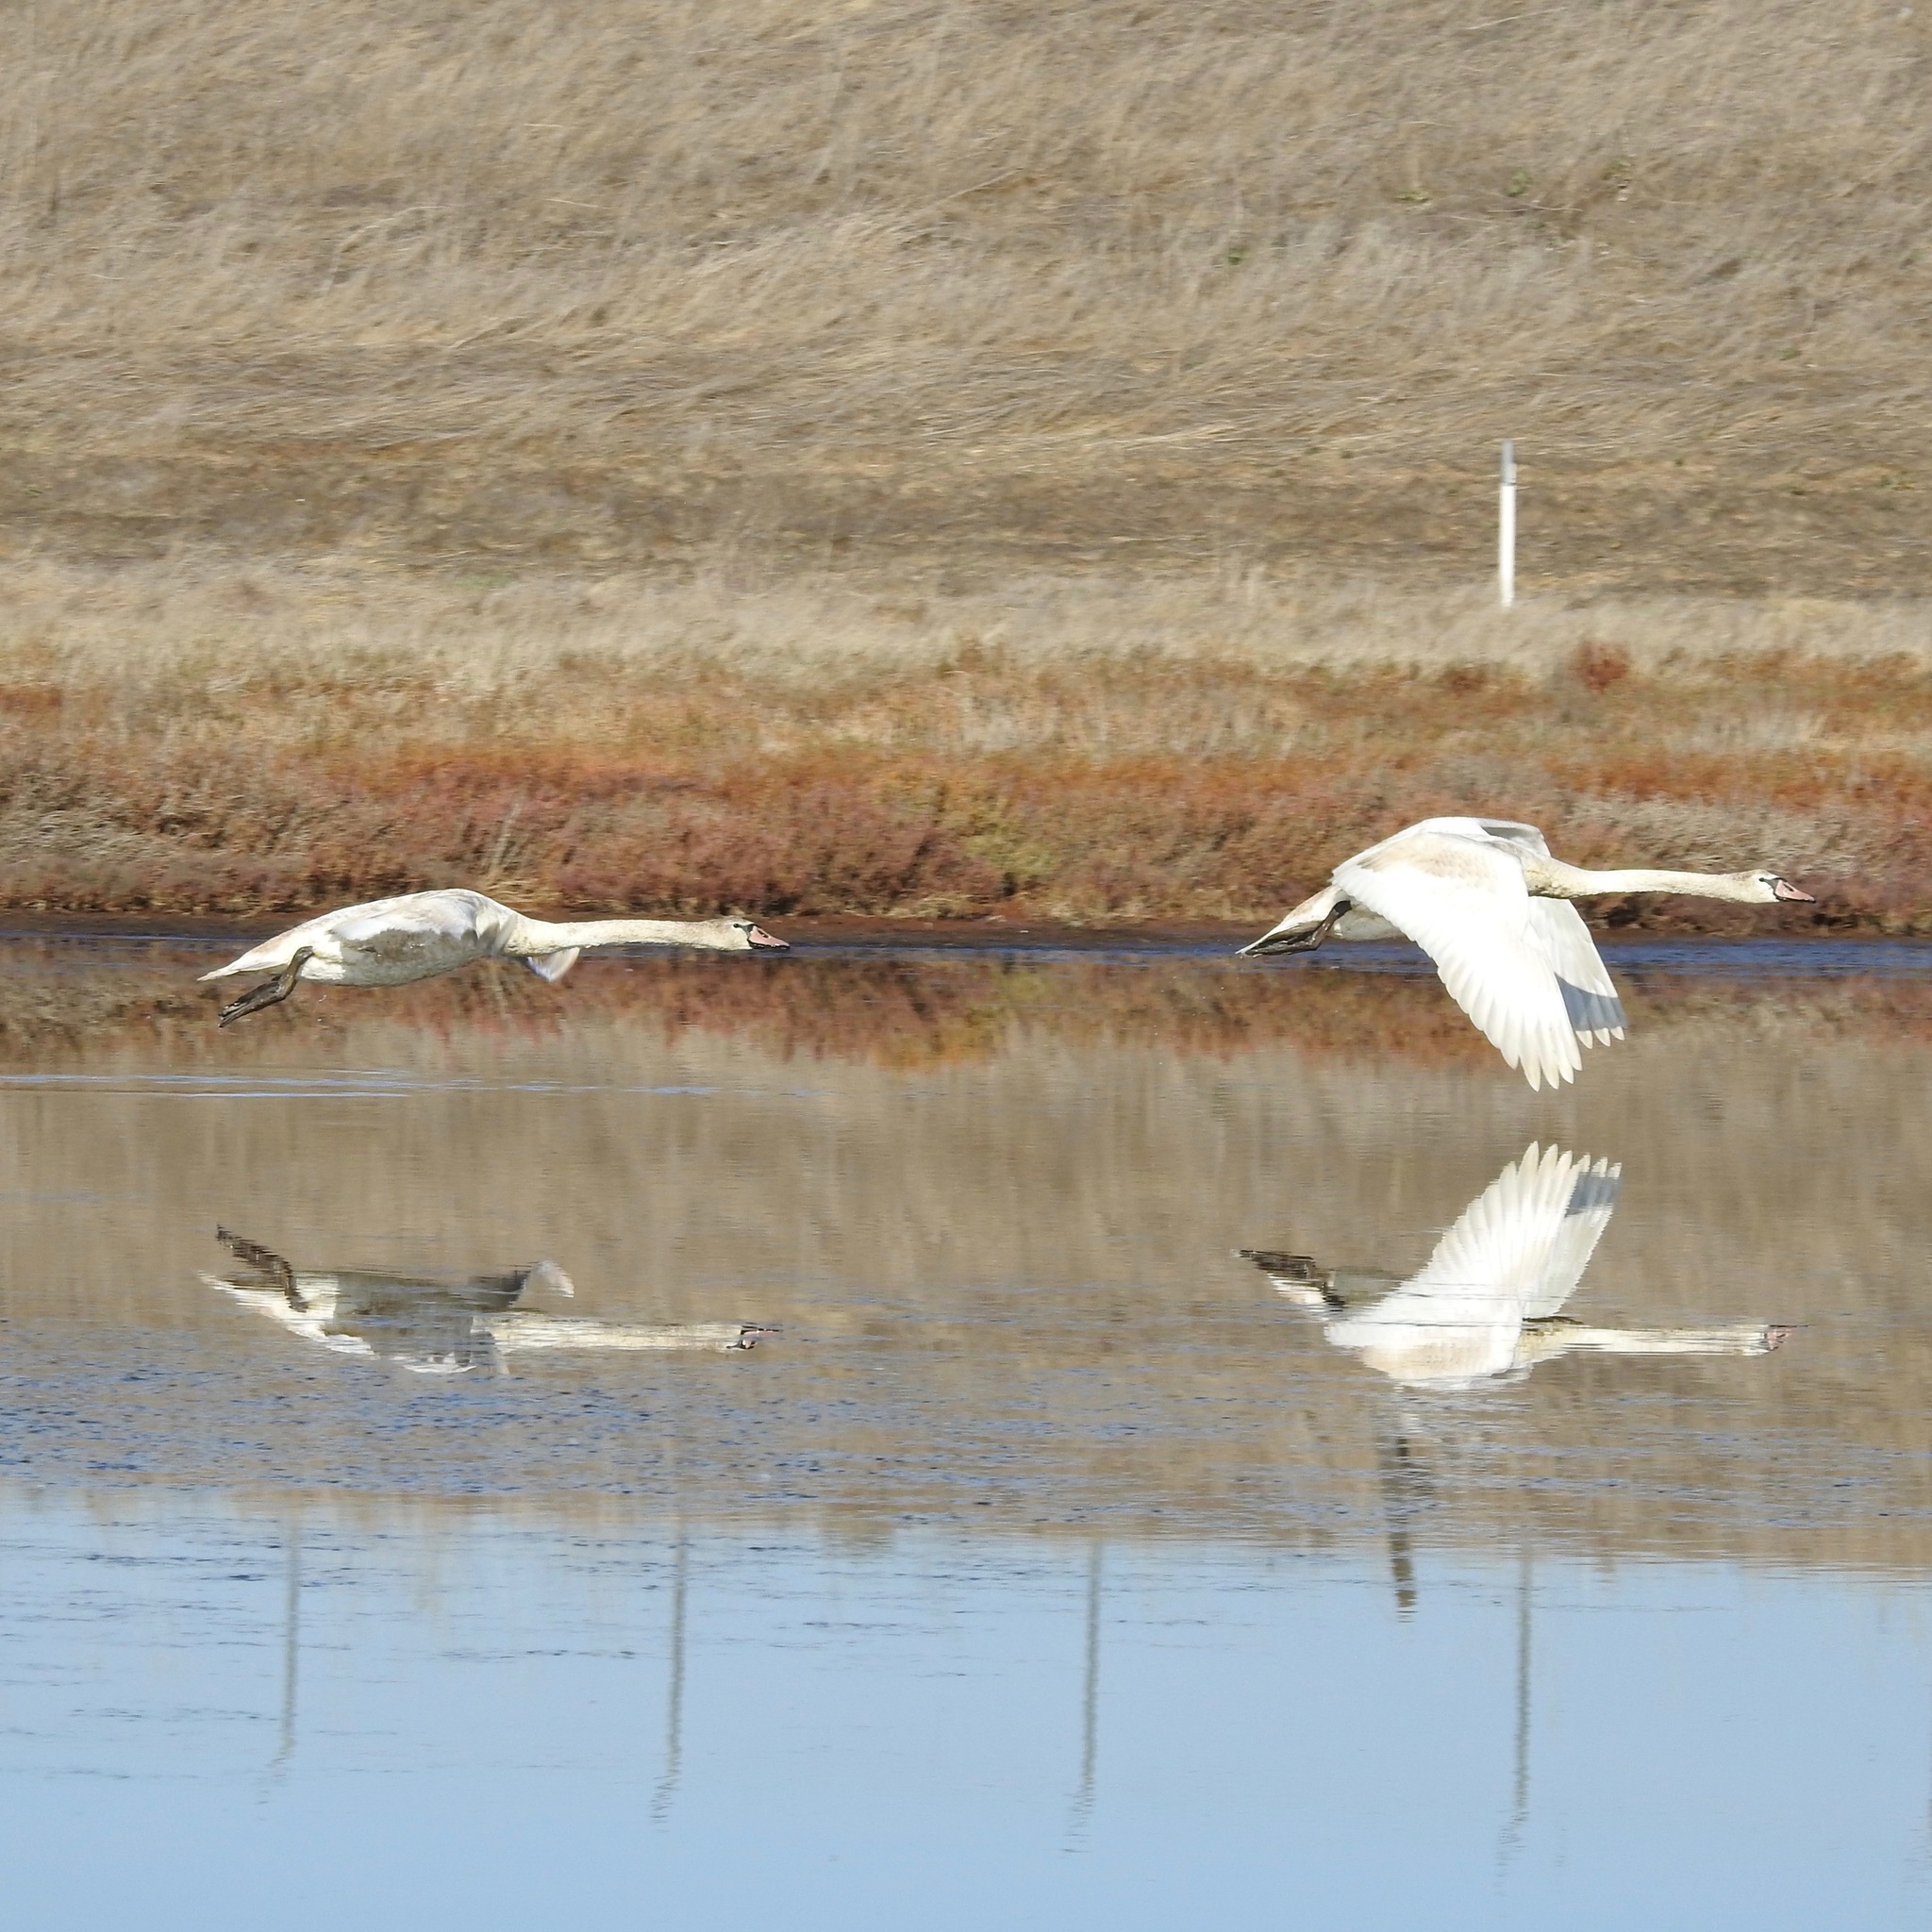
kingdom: Animalia
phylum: Chordata
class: Aves
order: Anseriformes
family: Anatidae
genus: Cygnus
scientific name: Cygnus olor
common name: Mute swan
